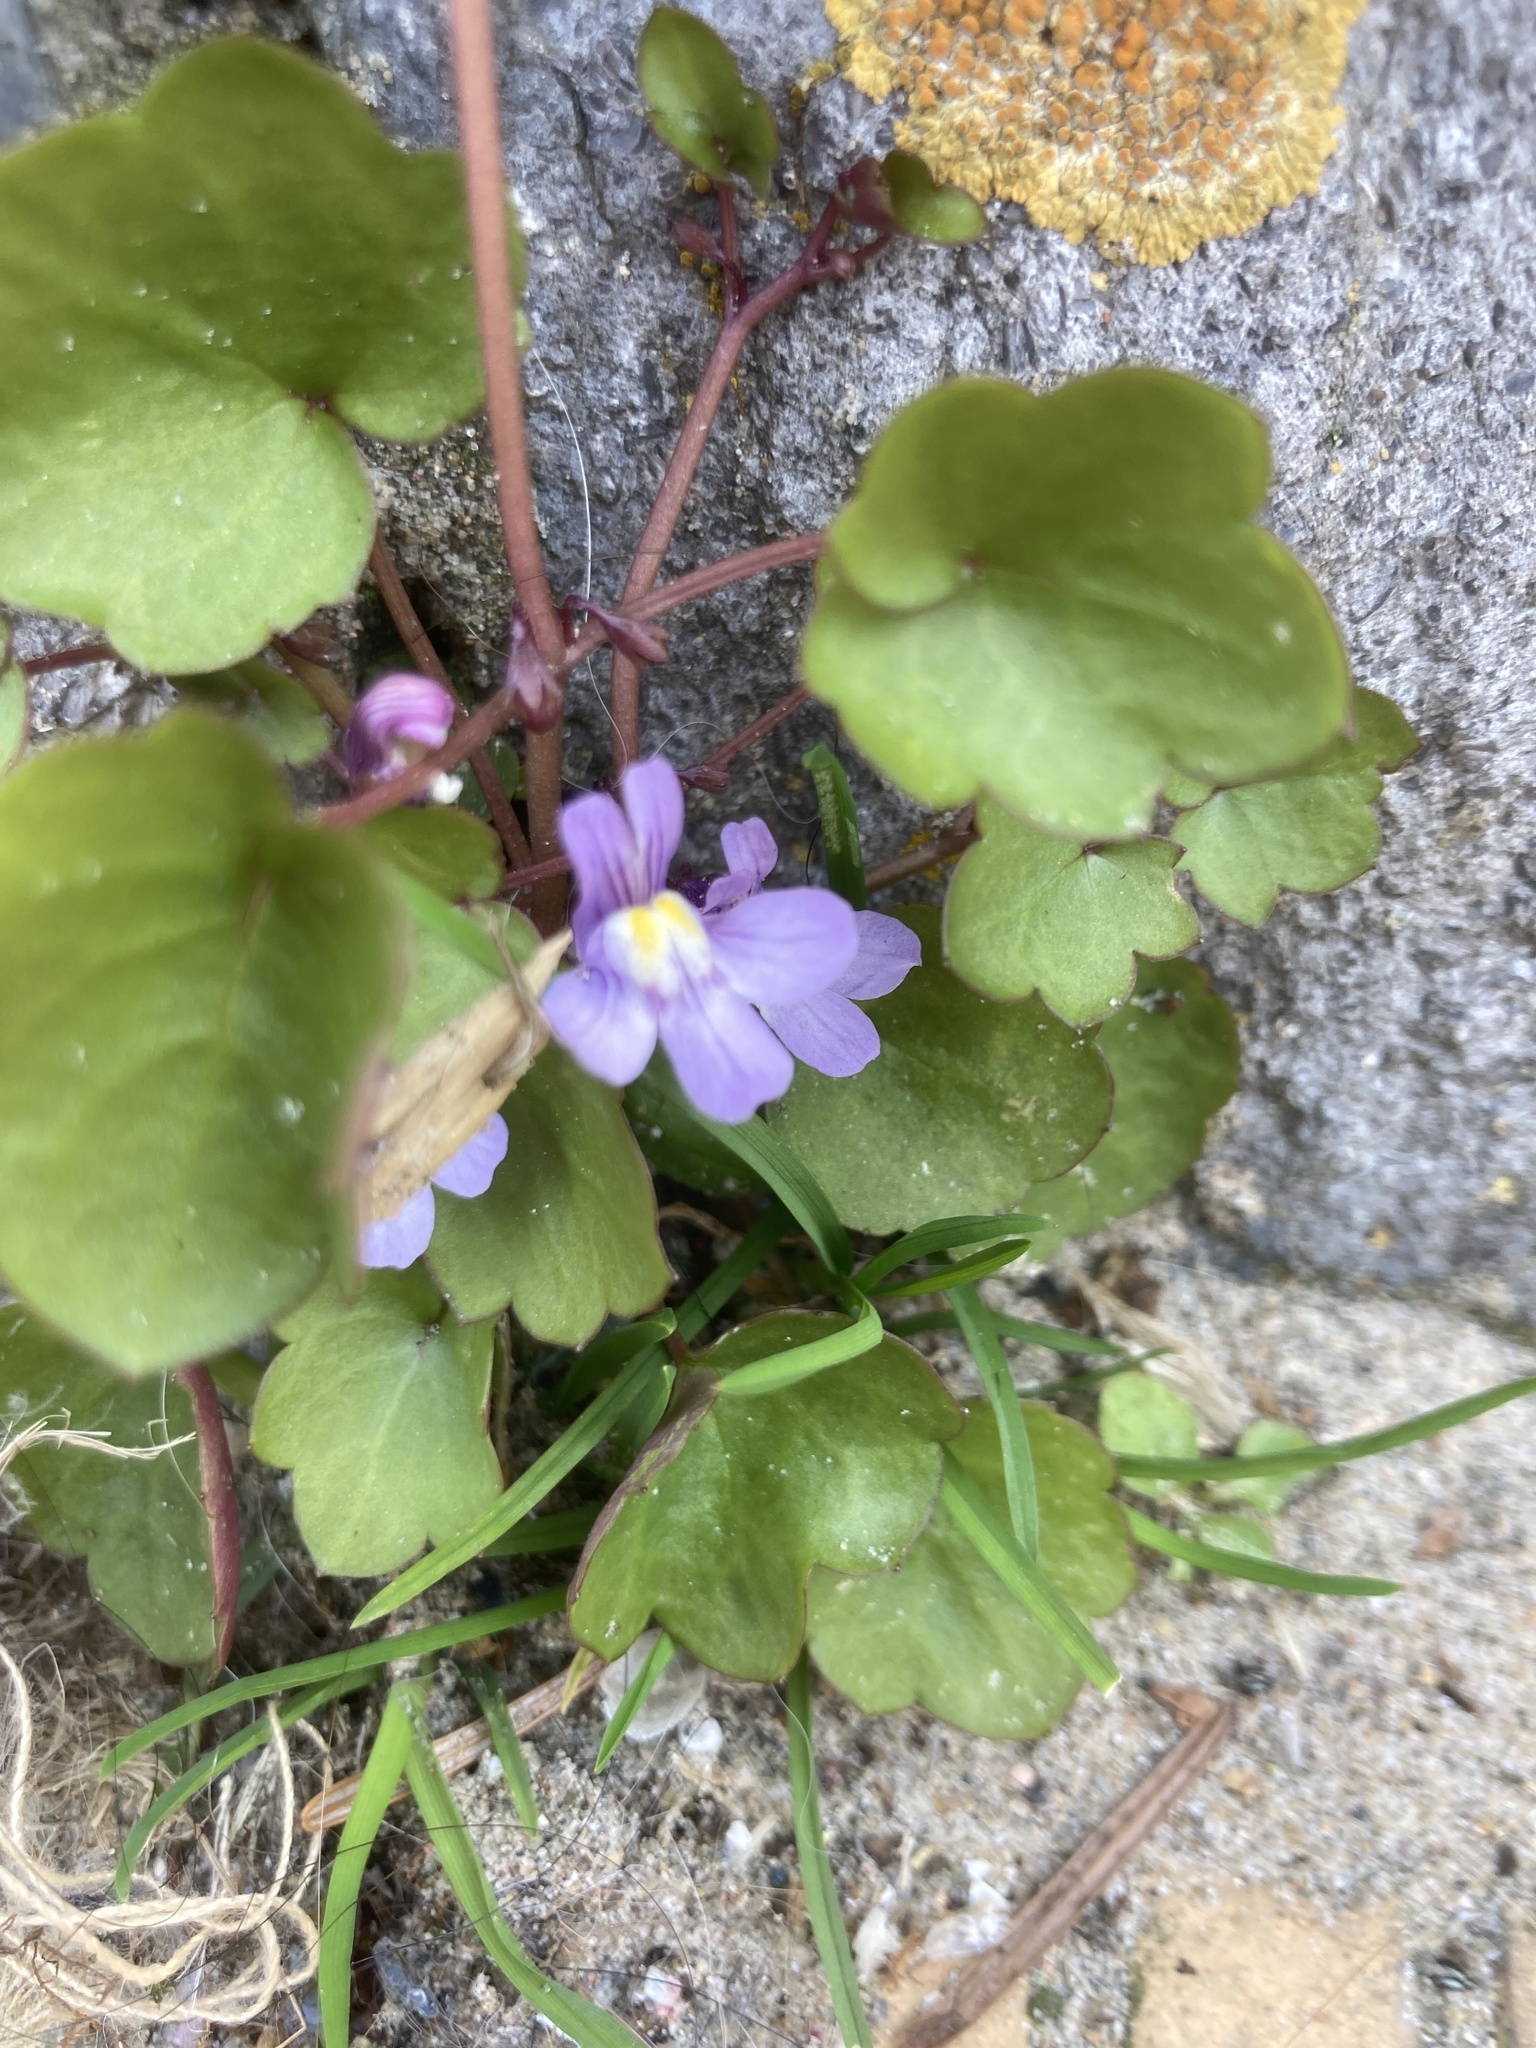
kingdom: Plantae
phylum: Tracheophyta
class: Magnoliopsida
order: Lamiales
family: Plantaginaceae
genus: Cymbalaria
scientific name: Cymbalaria muralis
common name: Ivy-leaved toadflax
